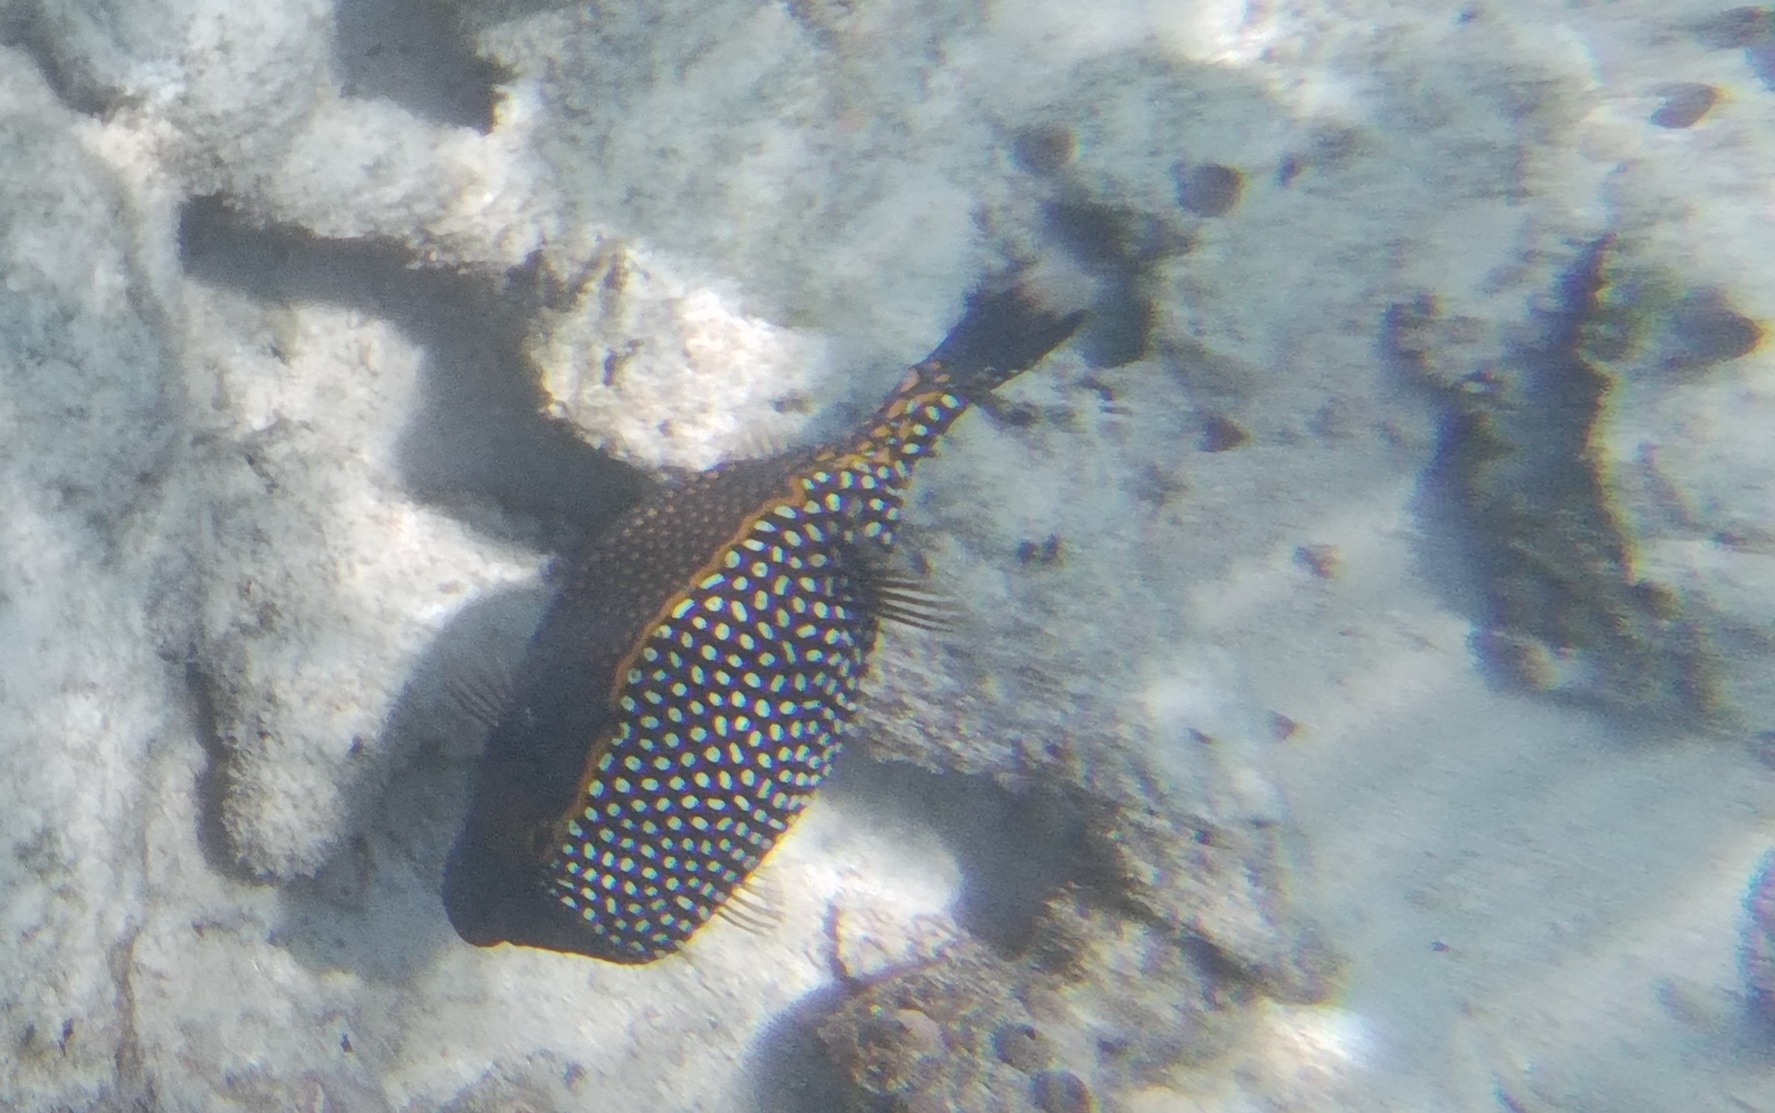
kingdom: Animalia
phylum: Chordata
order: Tetraodontiformes
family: Ostraciidae
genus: Ostracion
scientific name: Ostracion meleagris
